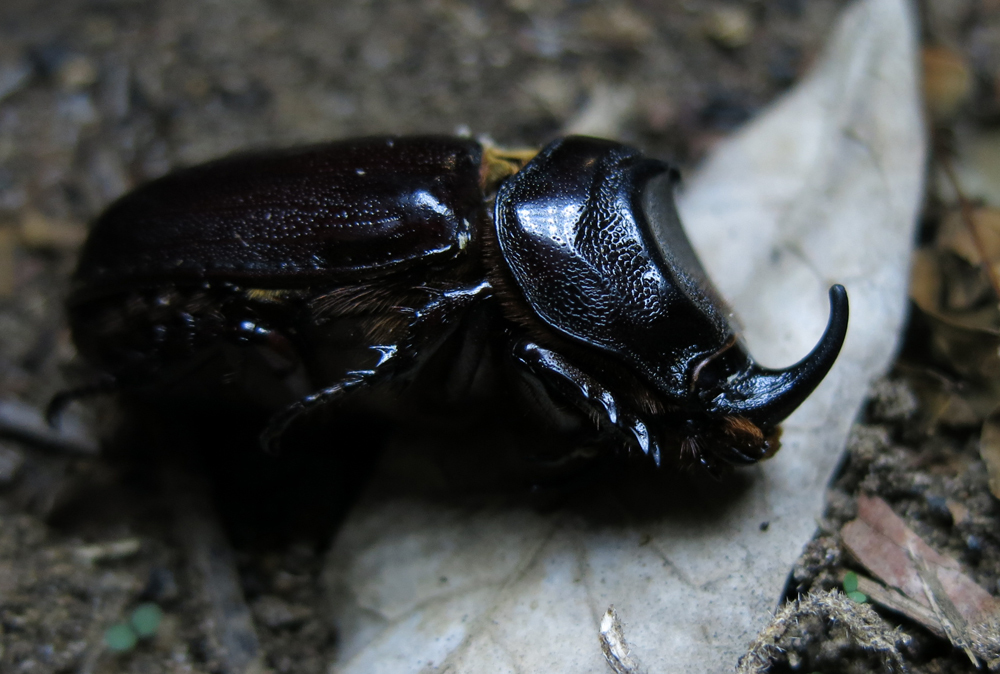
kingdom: Animalia
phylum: Arthropoda
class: Insecta
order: Coleoptera
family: Scarabaeidae
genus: Oryctes
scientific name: Oryctes monoceros
